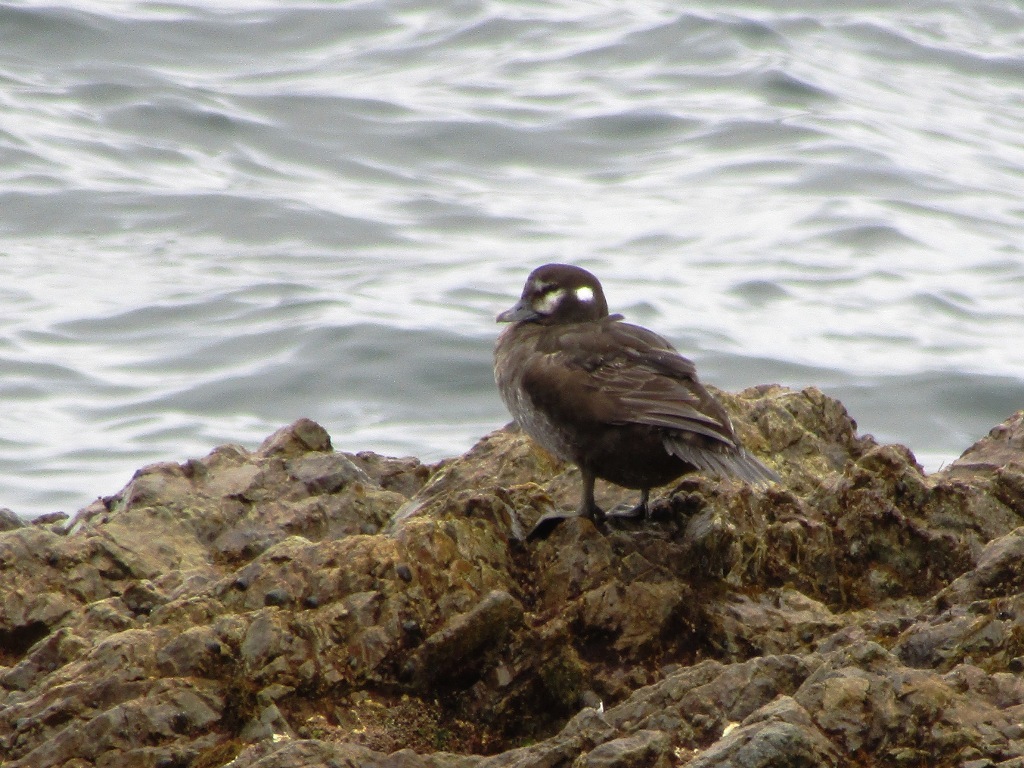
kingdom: Animalia
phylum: Chordata
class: Aves
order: Anseriformes
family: Anatidae
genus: Histrionicus
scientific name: Histrionicus histrionicus
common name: Harlequin duck
